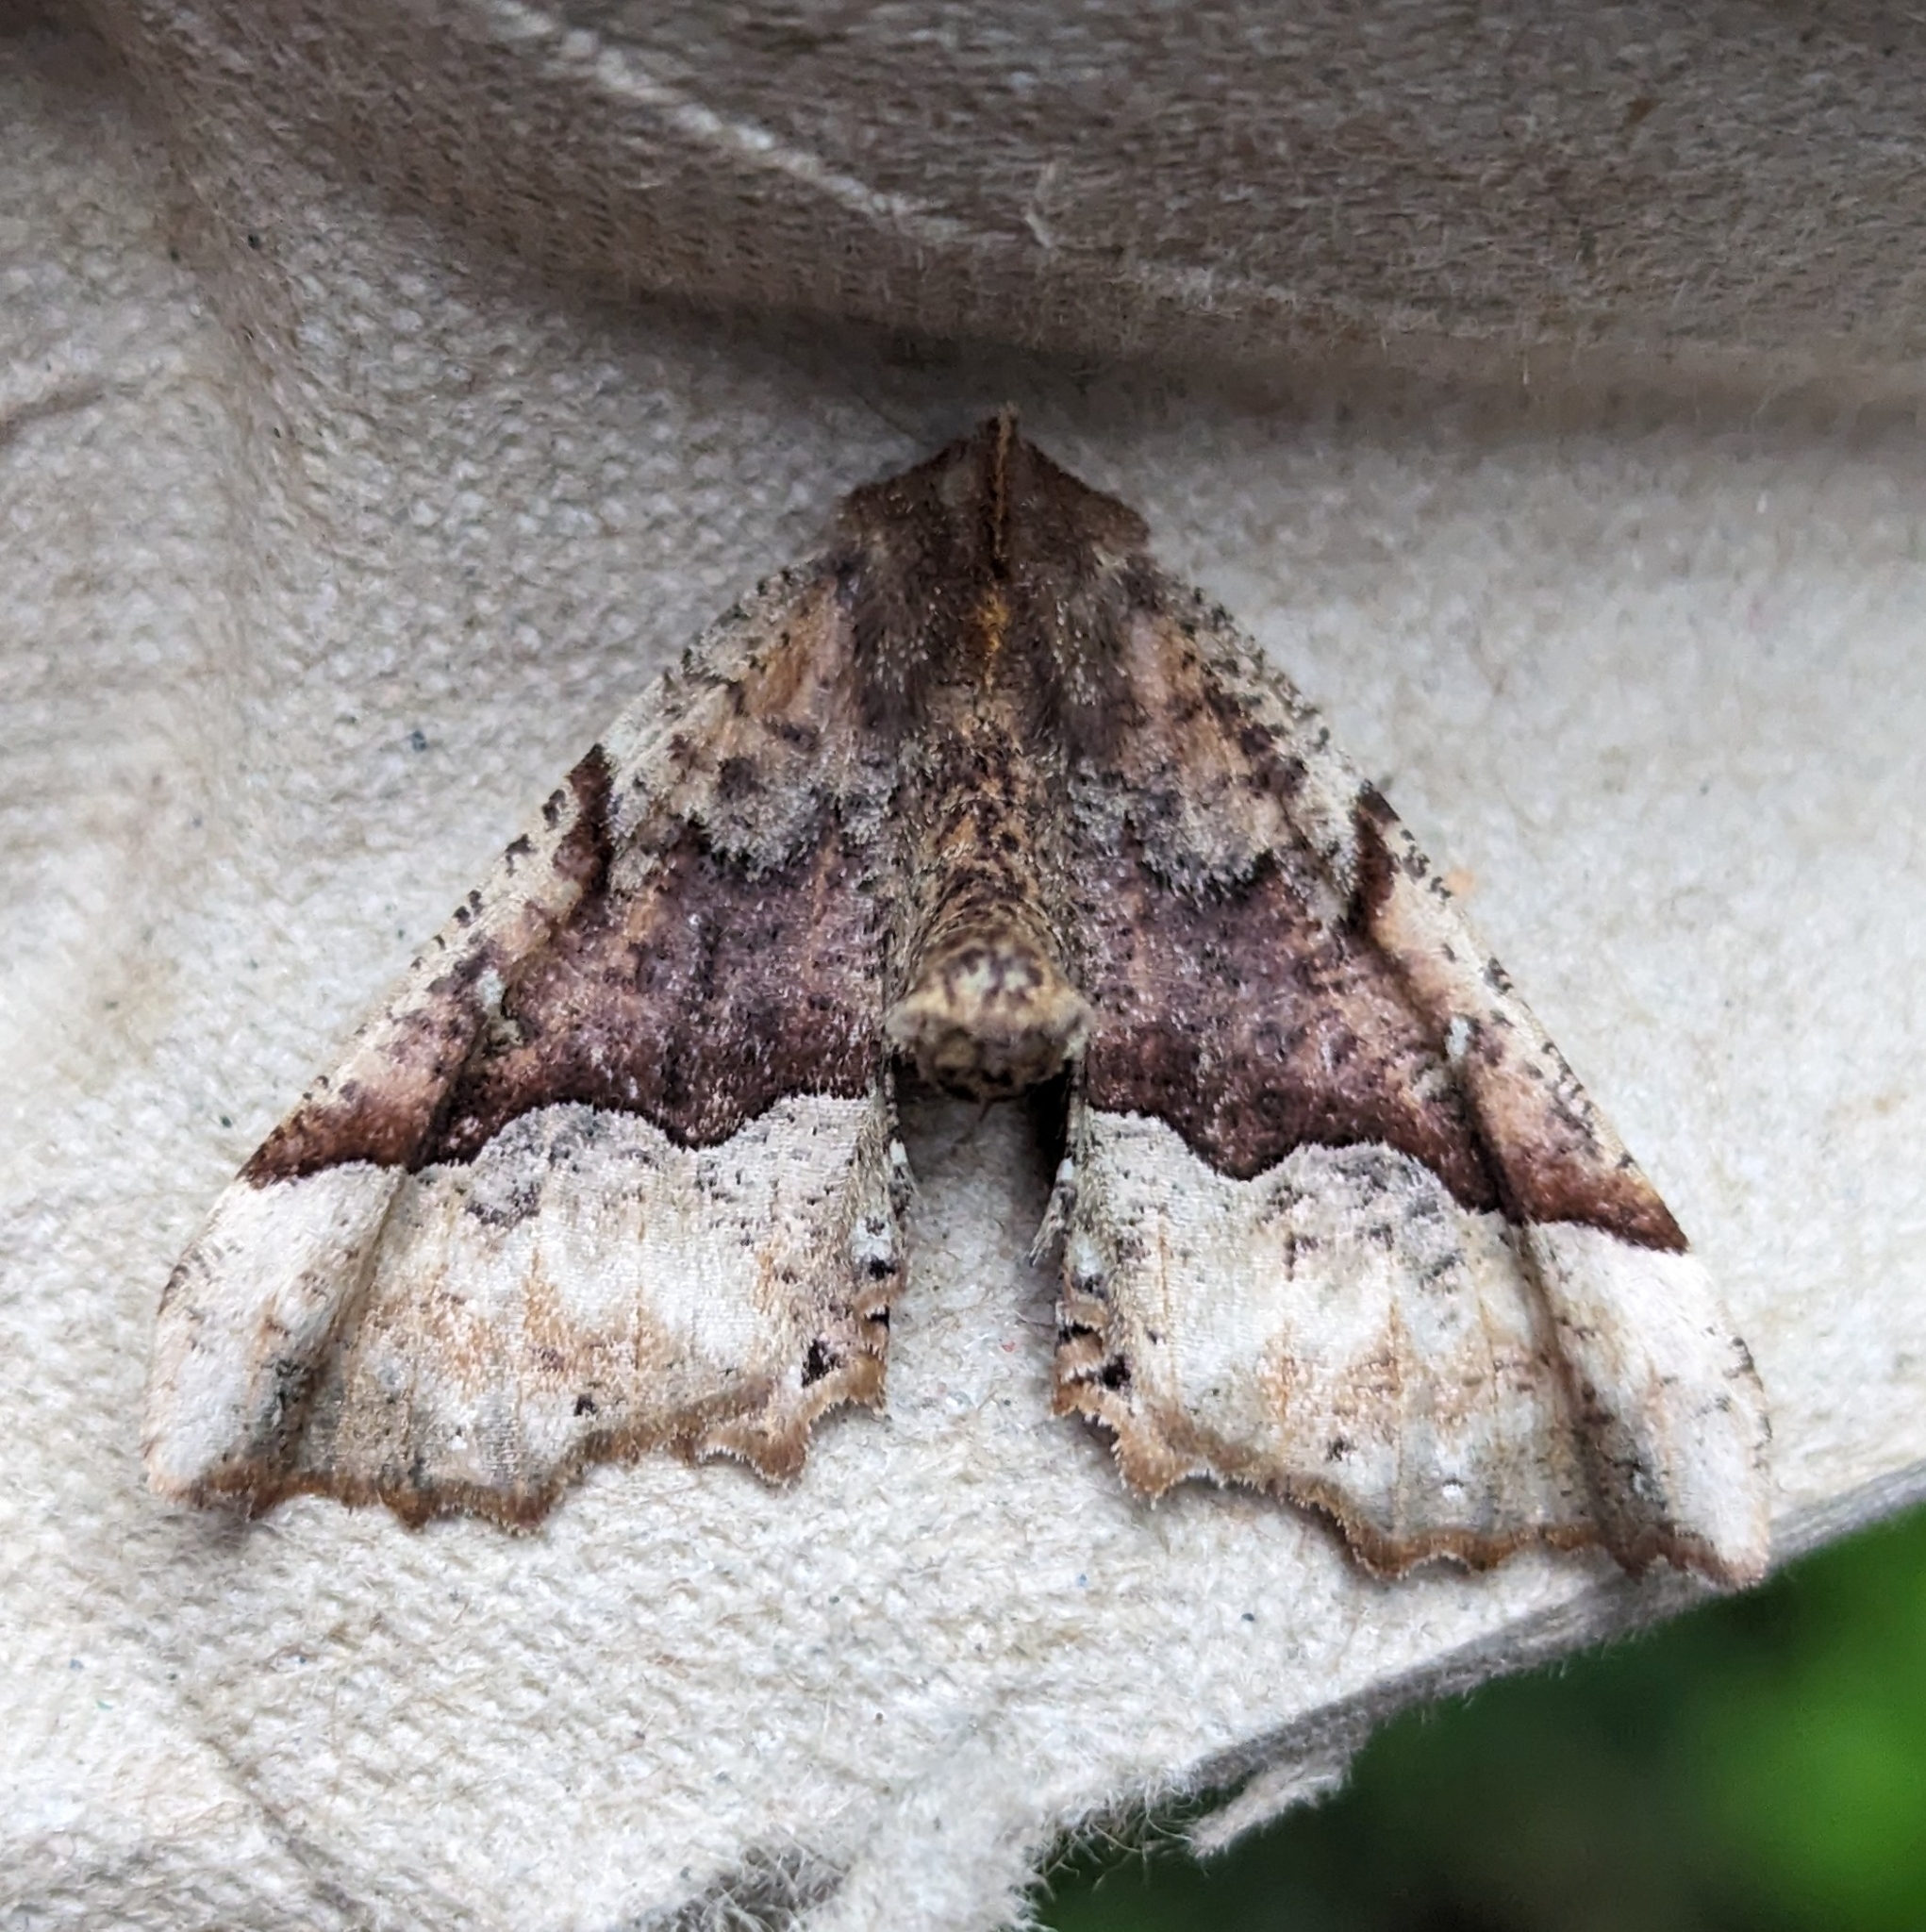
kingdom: Animalia
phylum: Arthropoda
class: Insecta
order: Lepidoptera
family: Geometridae
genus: Pero
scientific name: Pero morrisonaria
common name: Morrison's pero
